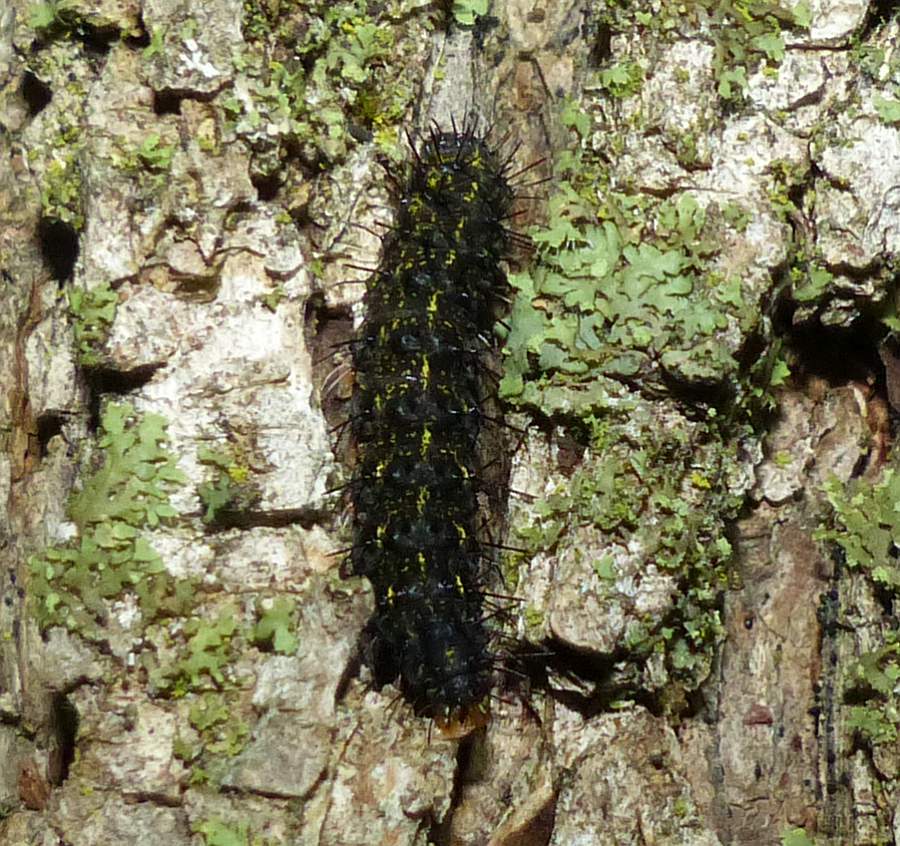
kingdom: Animalia
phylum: Arthropoda
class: Insecta
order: Lepidoptera
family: Erebidae
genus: Hypoprepia
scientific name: Hypoprepia fucosa
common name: Painted lichen moth
